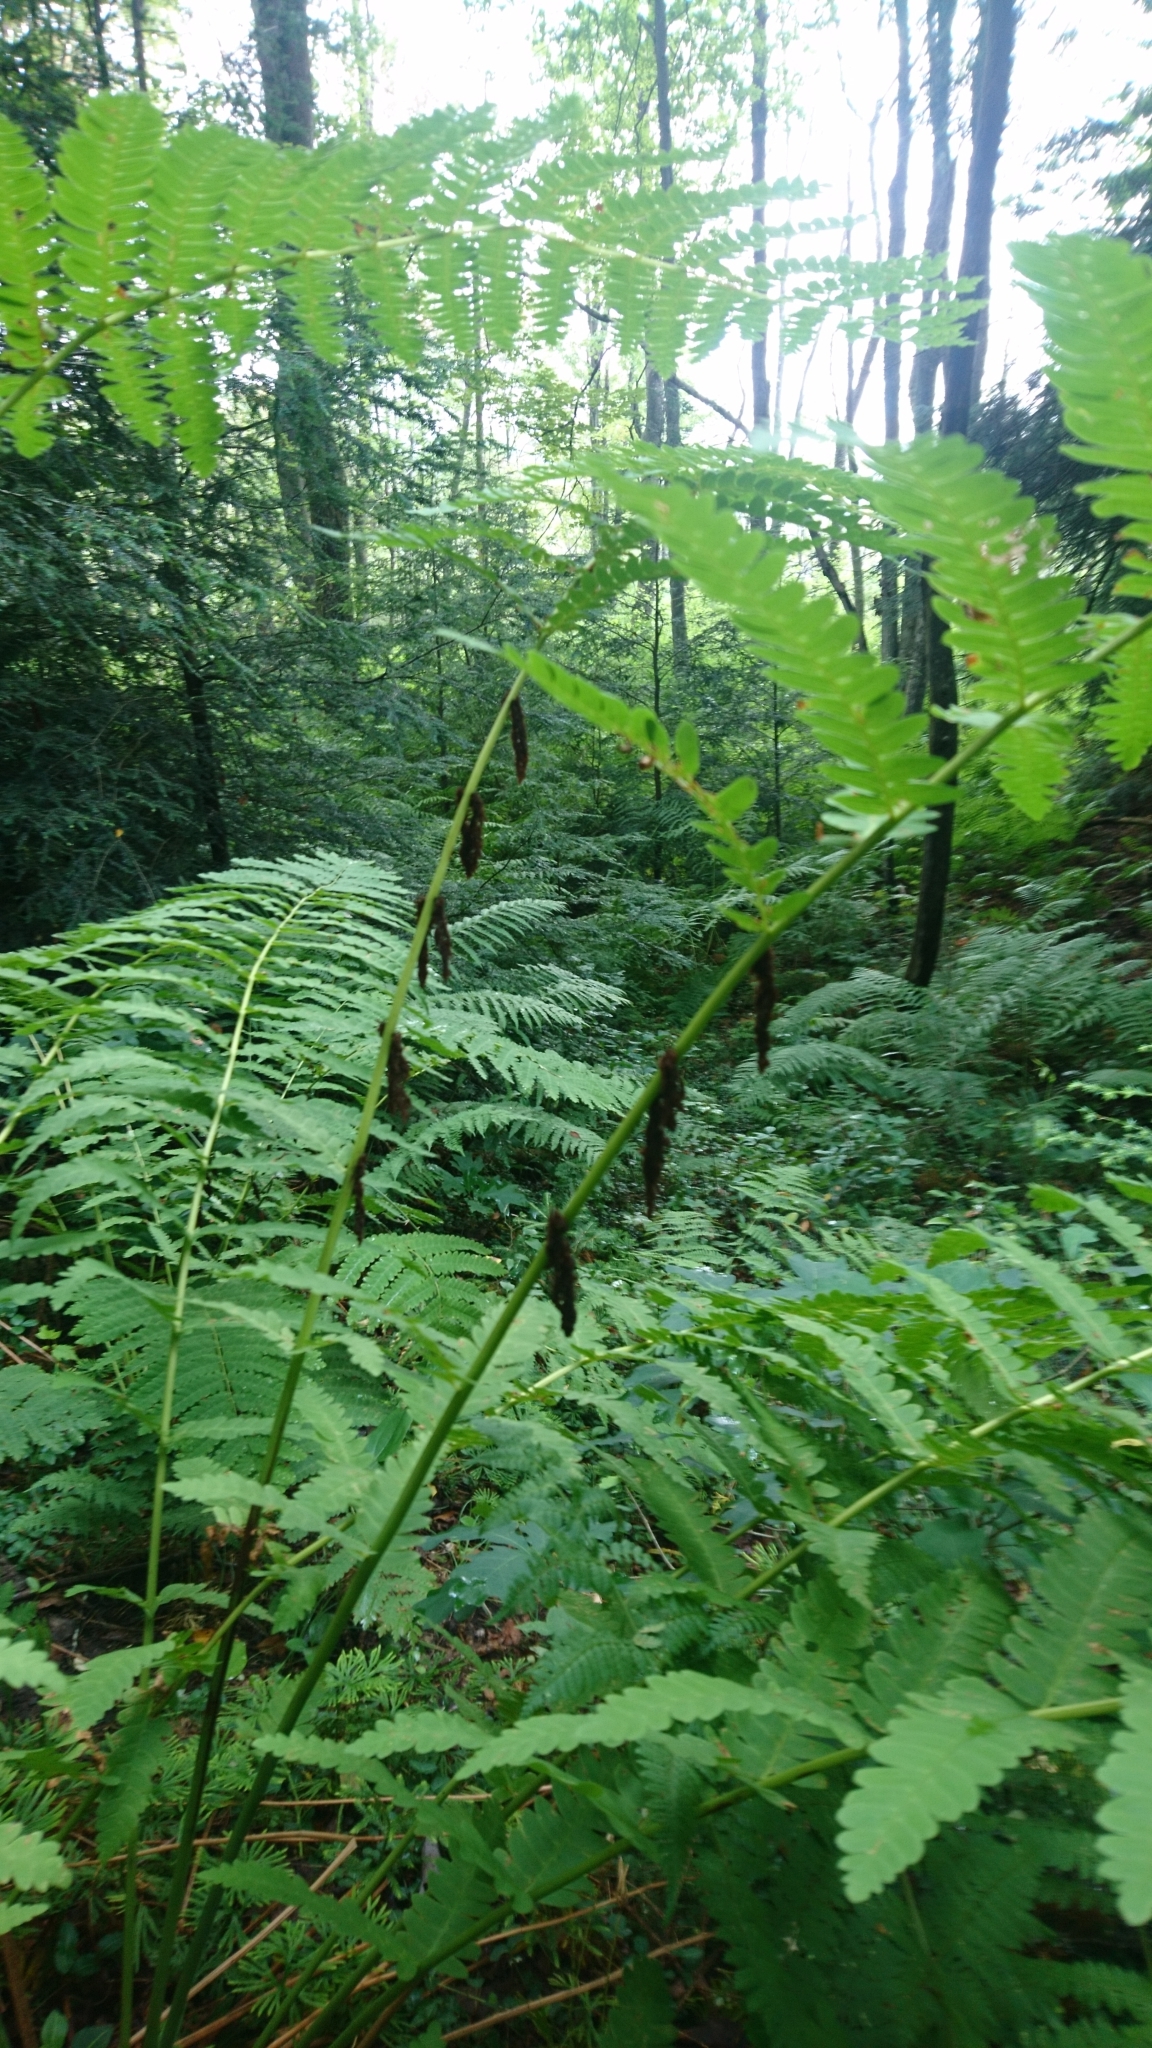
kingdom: Plantae
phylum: Tracheophyta
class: Polypodiopsida
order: Osmundales
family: Osmundaceae
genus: Claytosmunda
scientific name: Claytosmunda claytoniana
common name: Clayton's fern
